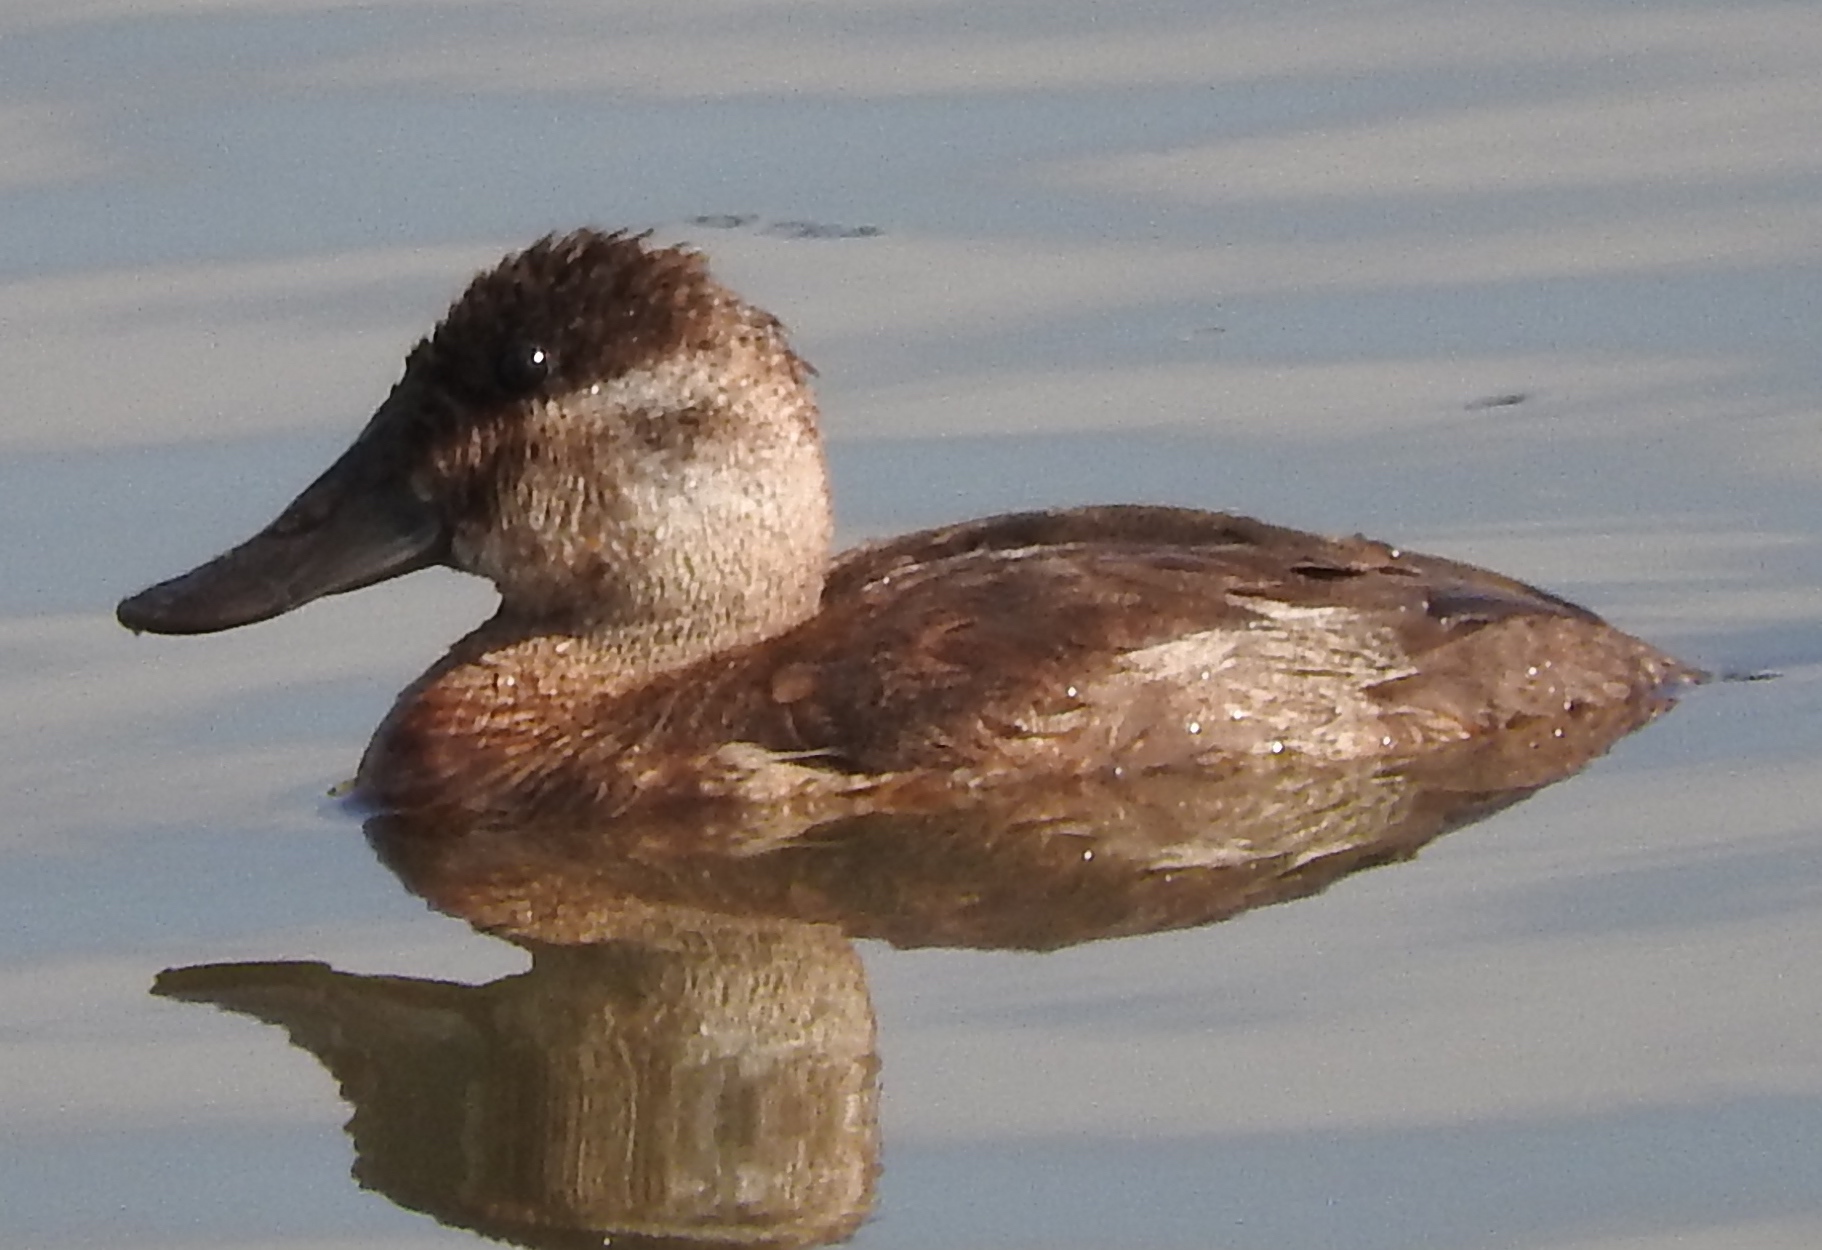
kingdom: Animalia
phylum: Chordata
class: Aves
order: Anseriformes
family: Anatidae
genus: Oxyura
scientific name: Oxyura jamaicensis
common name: Ruddy duck
